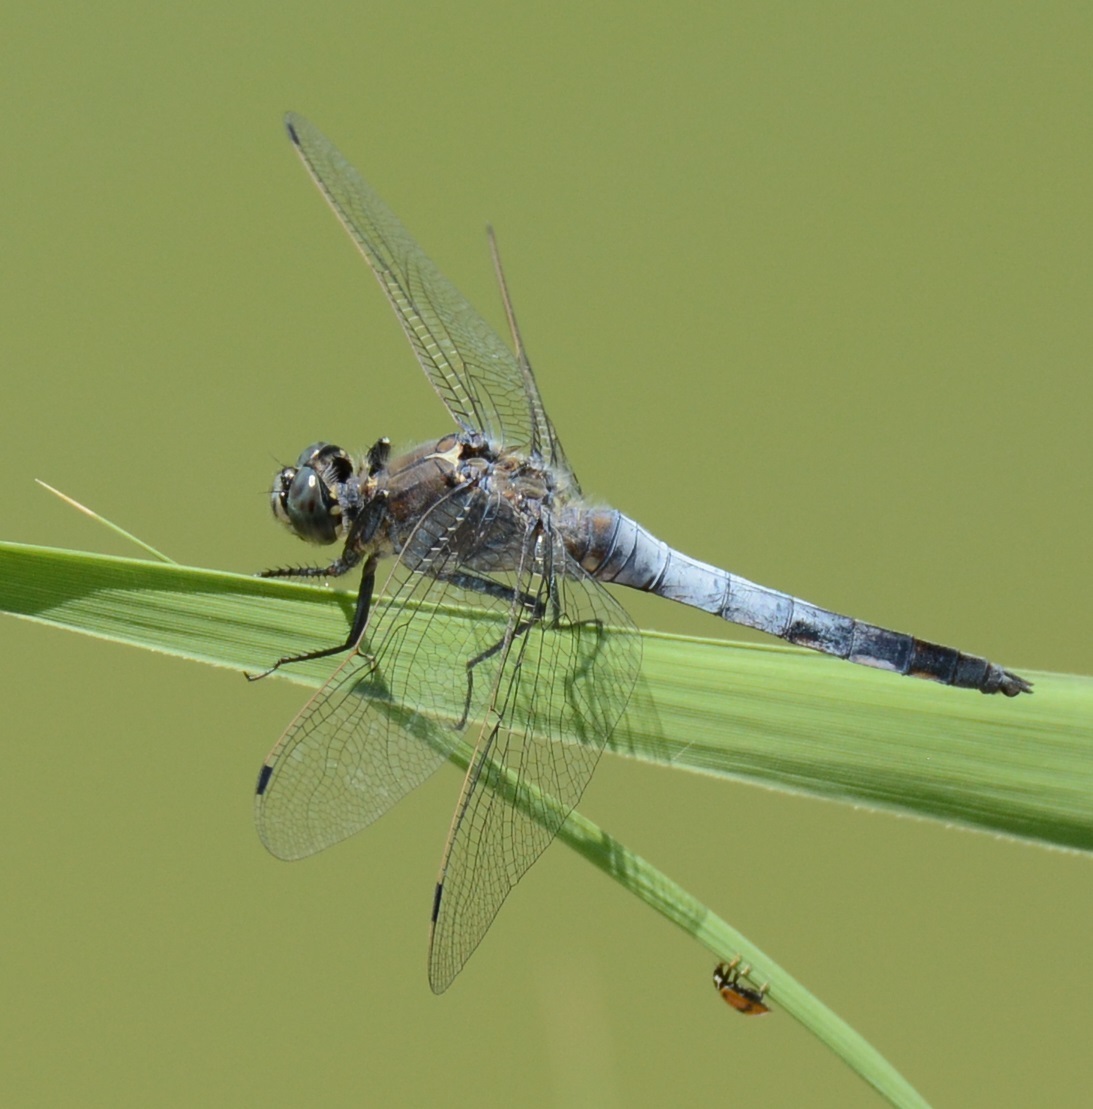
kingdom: Animalia
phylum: Arthropoda
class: Insecta
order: Odonata
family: Libellulidae
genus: Orthetrum
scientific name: Orthetrum cancellatum
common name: Black-tailed skimmer
